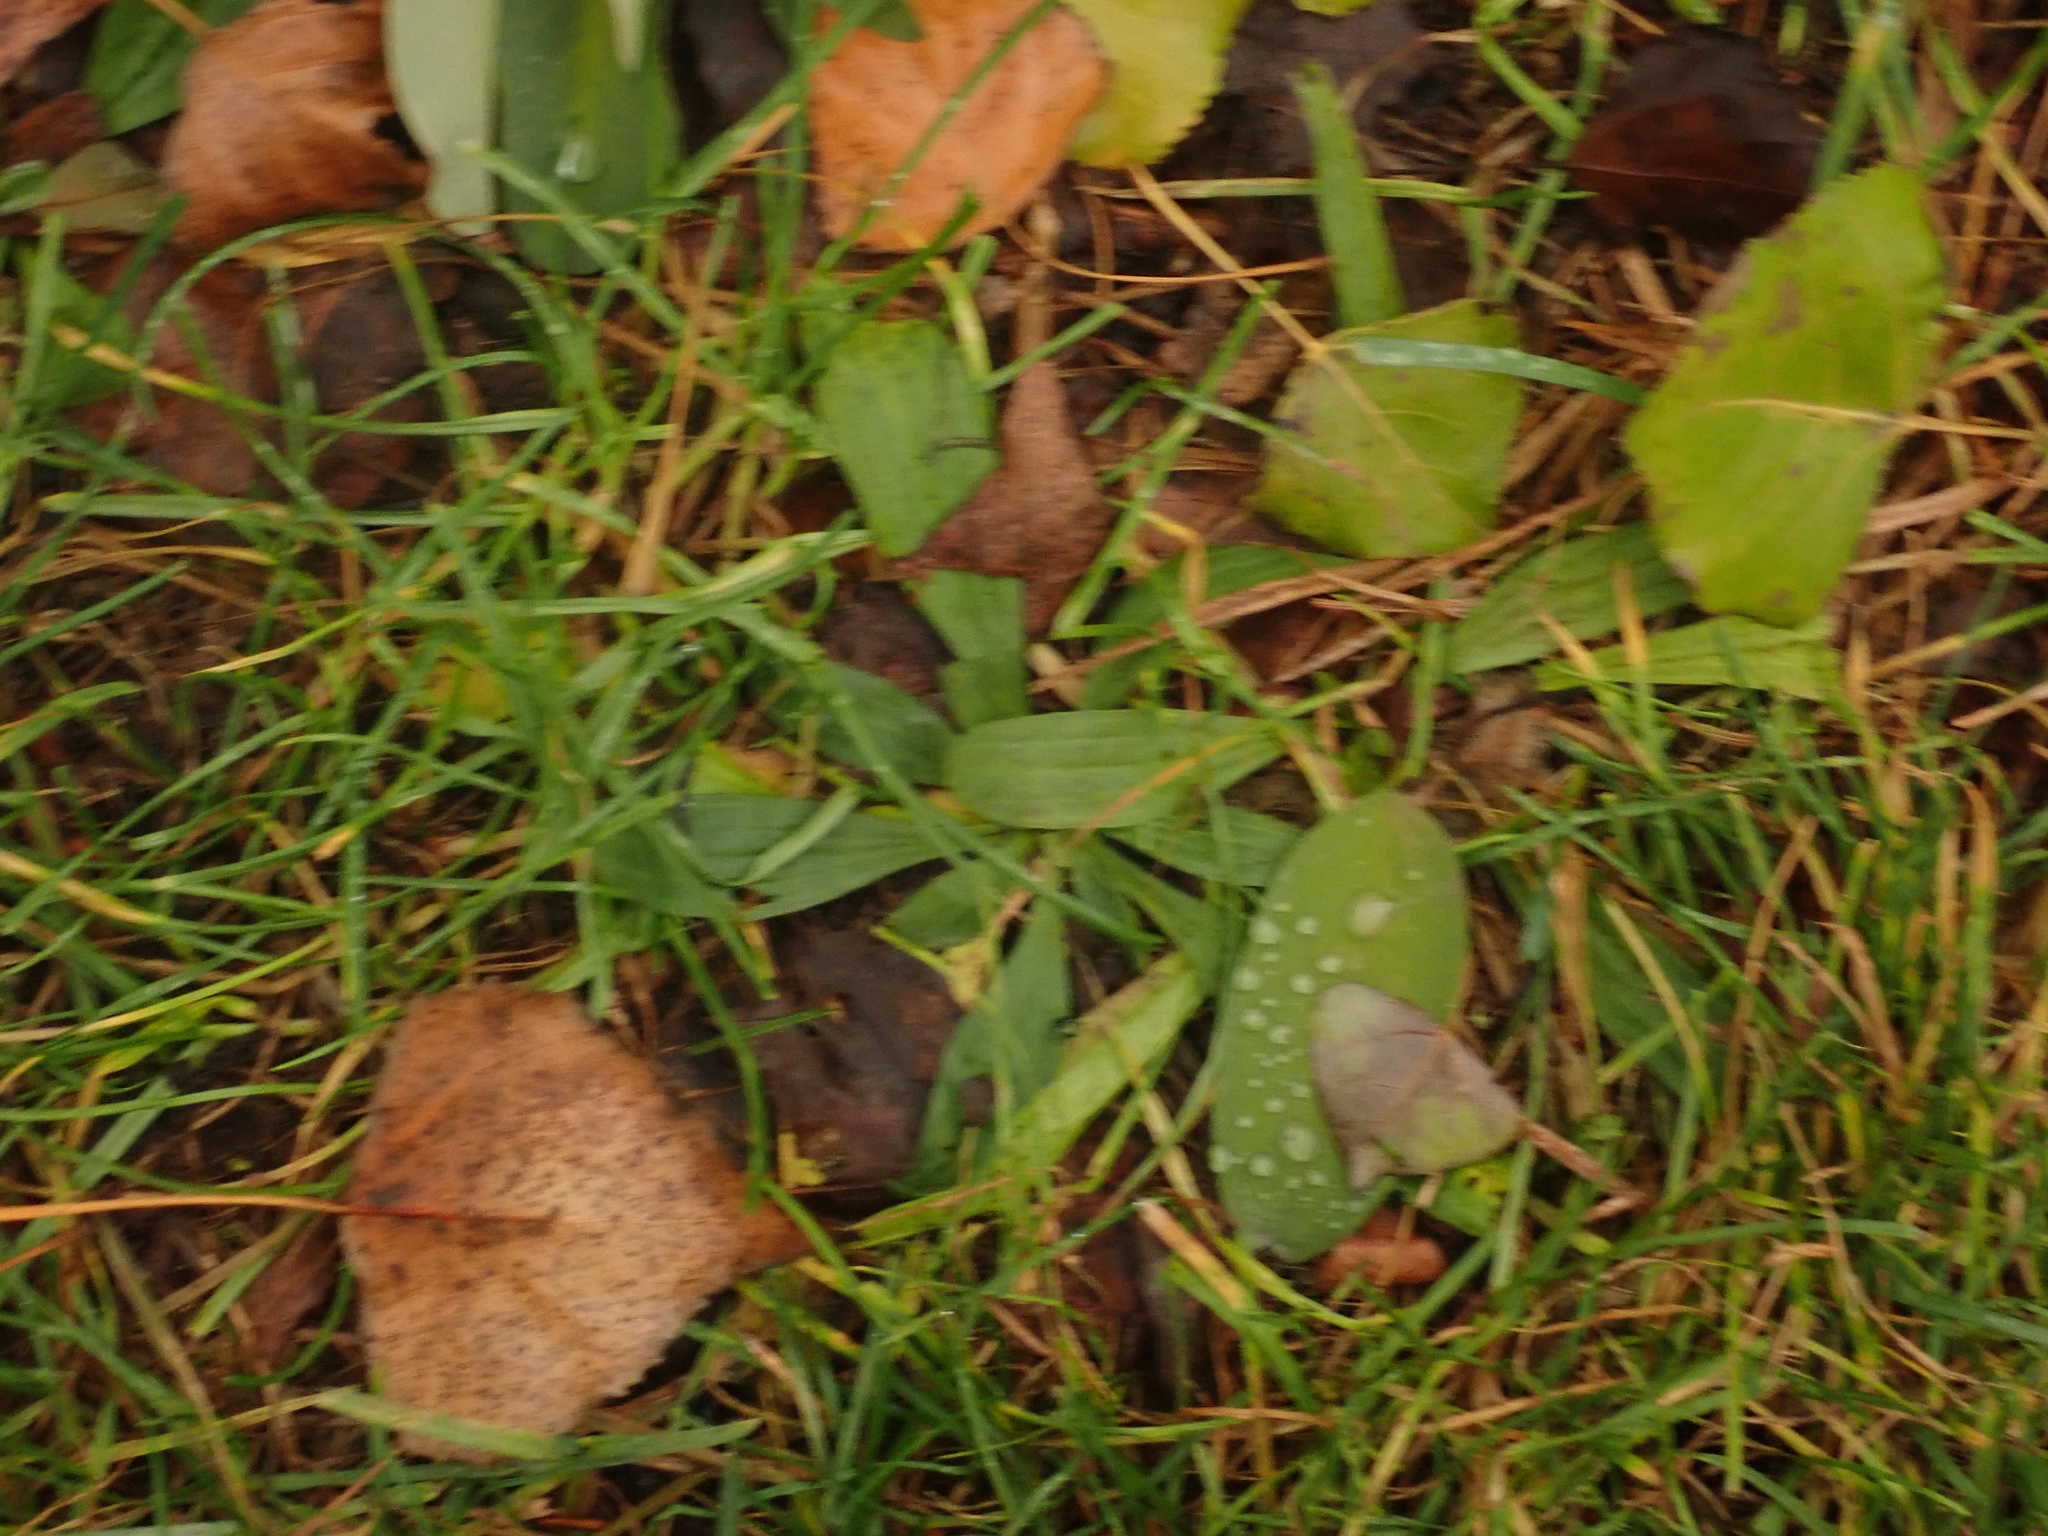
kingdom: Plantae
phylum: Tracheophyta
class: Magnoliopsida
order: Lamiales
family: Plantaginaceae
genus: Plantago
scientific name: Plantago lanceolata
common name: Ribwort plantain
